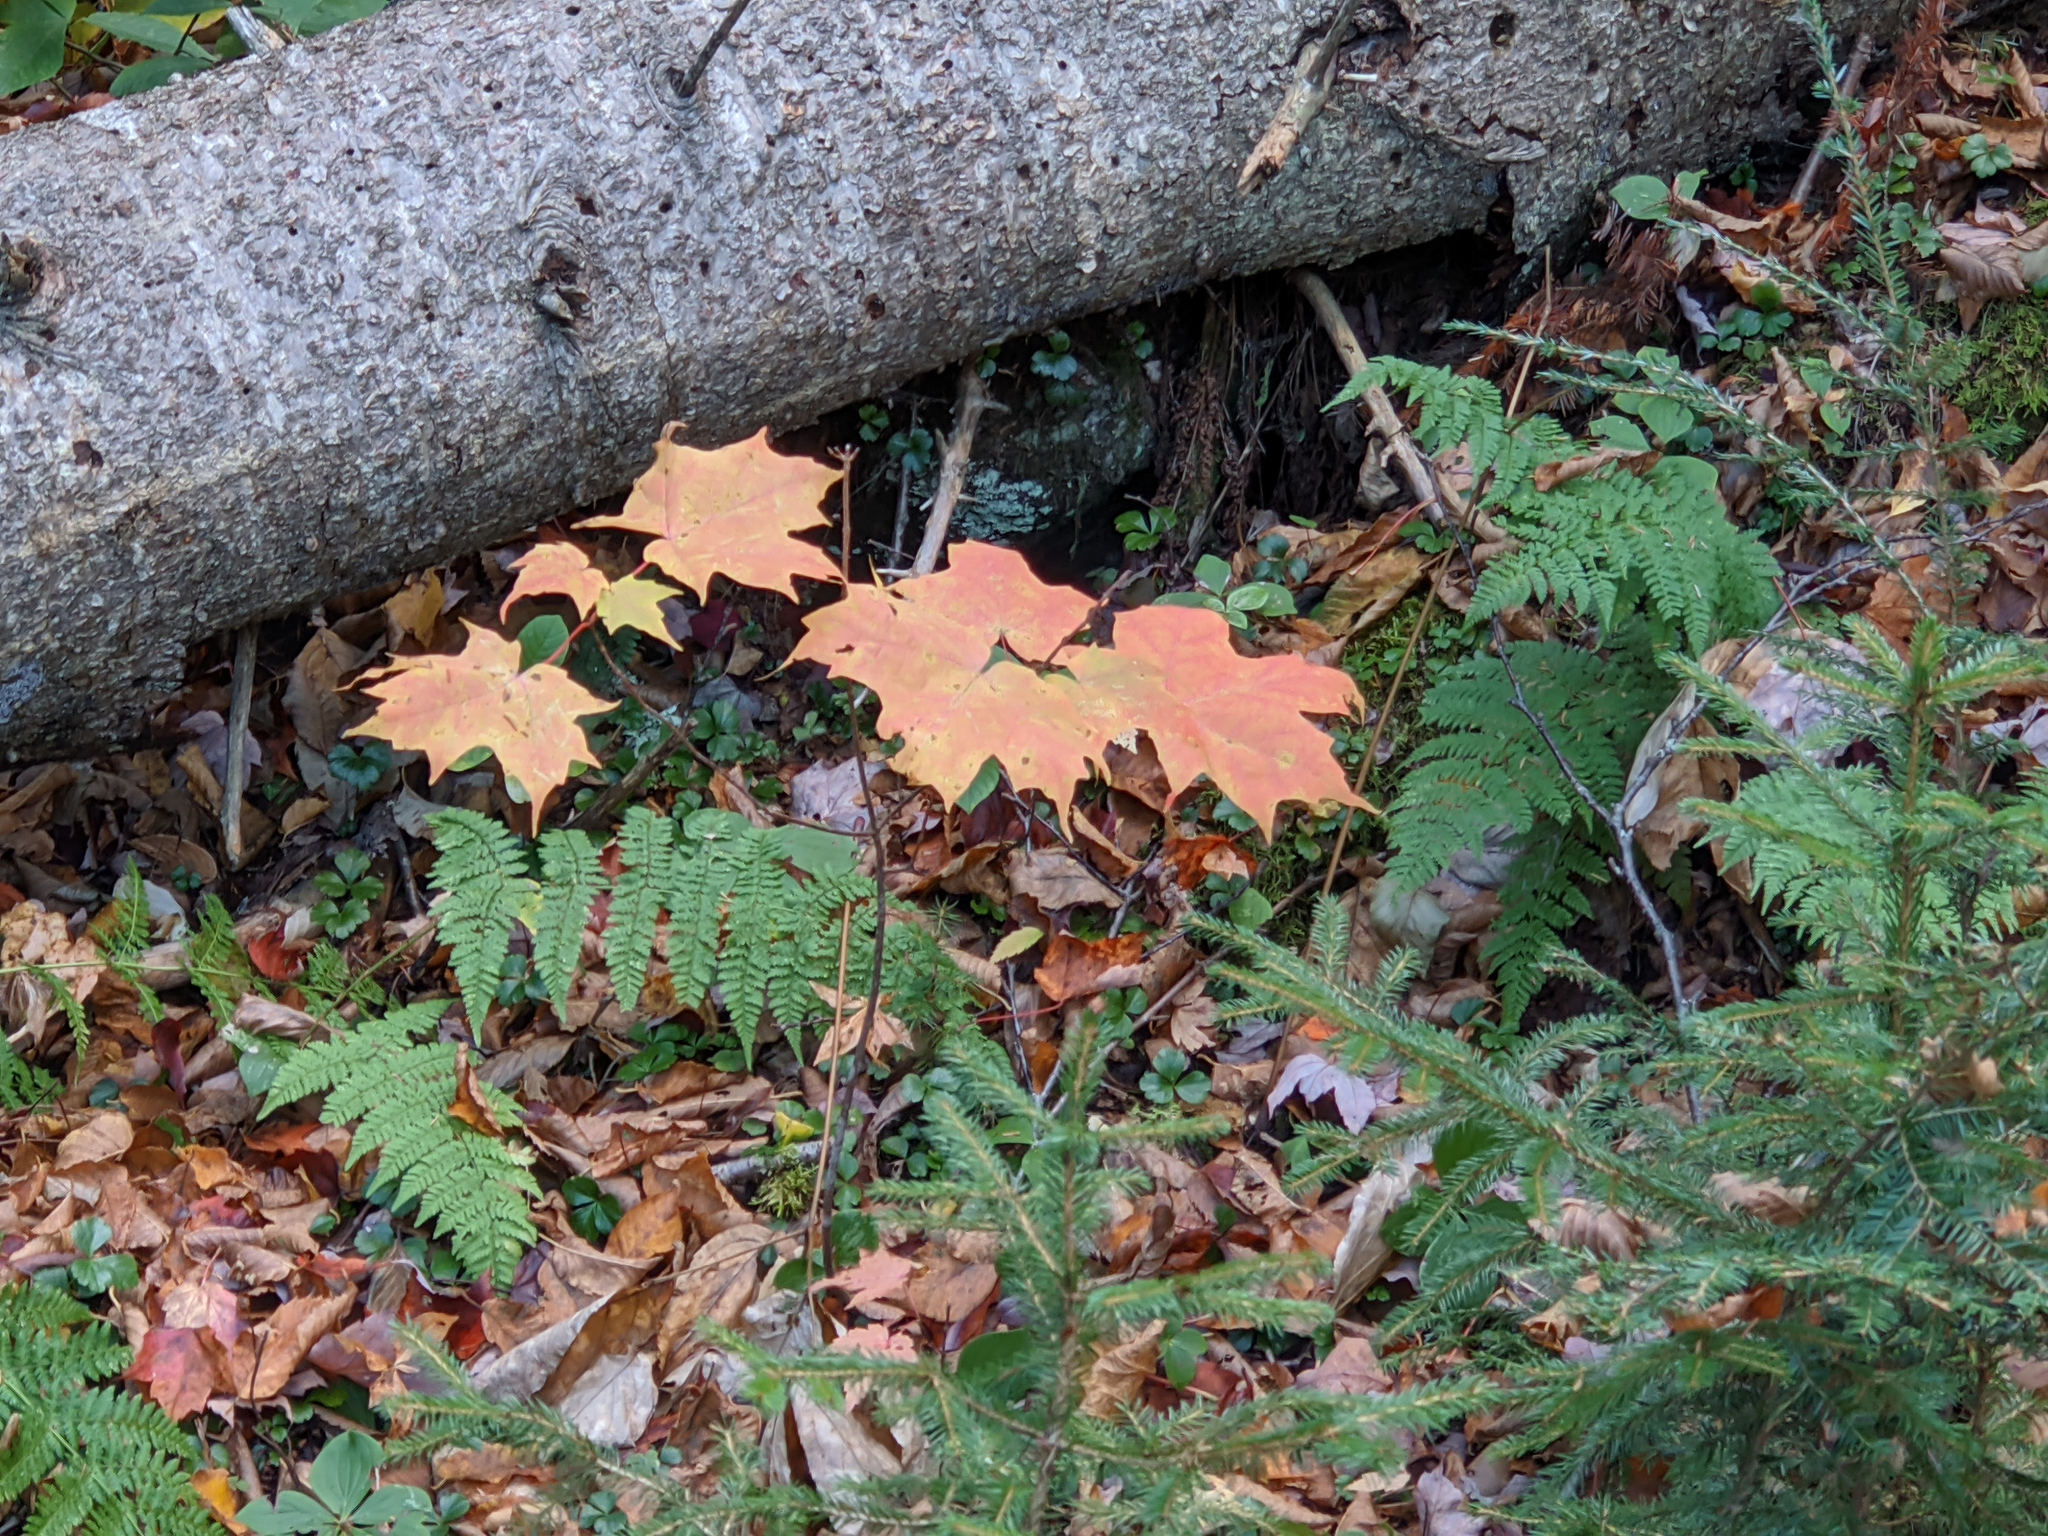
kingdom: Plantae
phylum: Tracheophyta
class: Magnoliopsida
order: Sapindales
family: Sapindaceae
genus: Acer
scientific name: Acer saccharum
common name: Sugar maple
